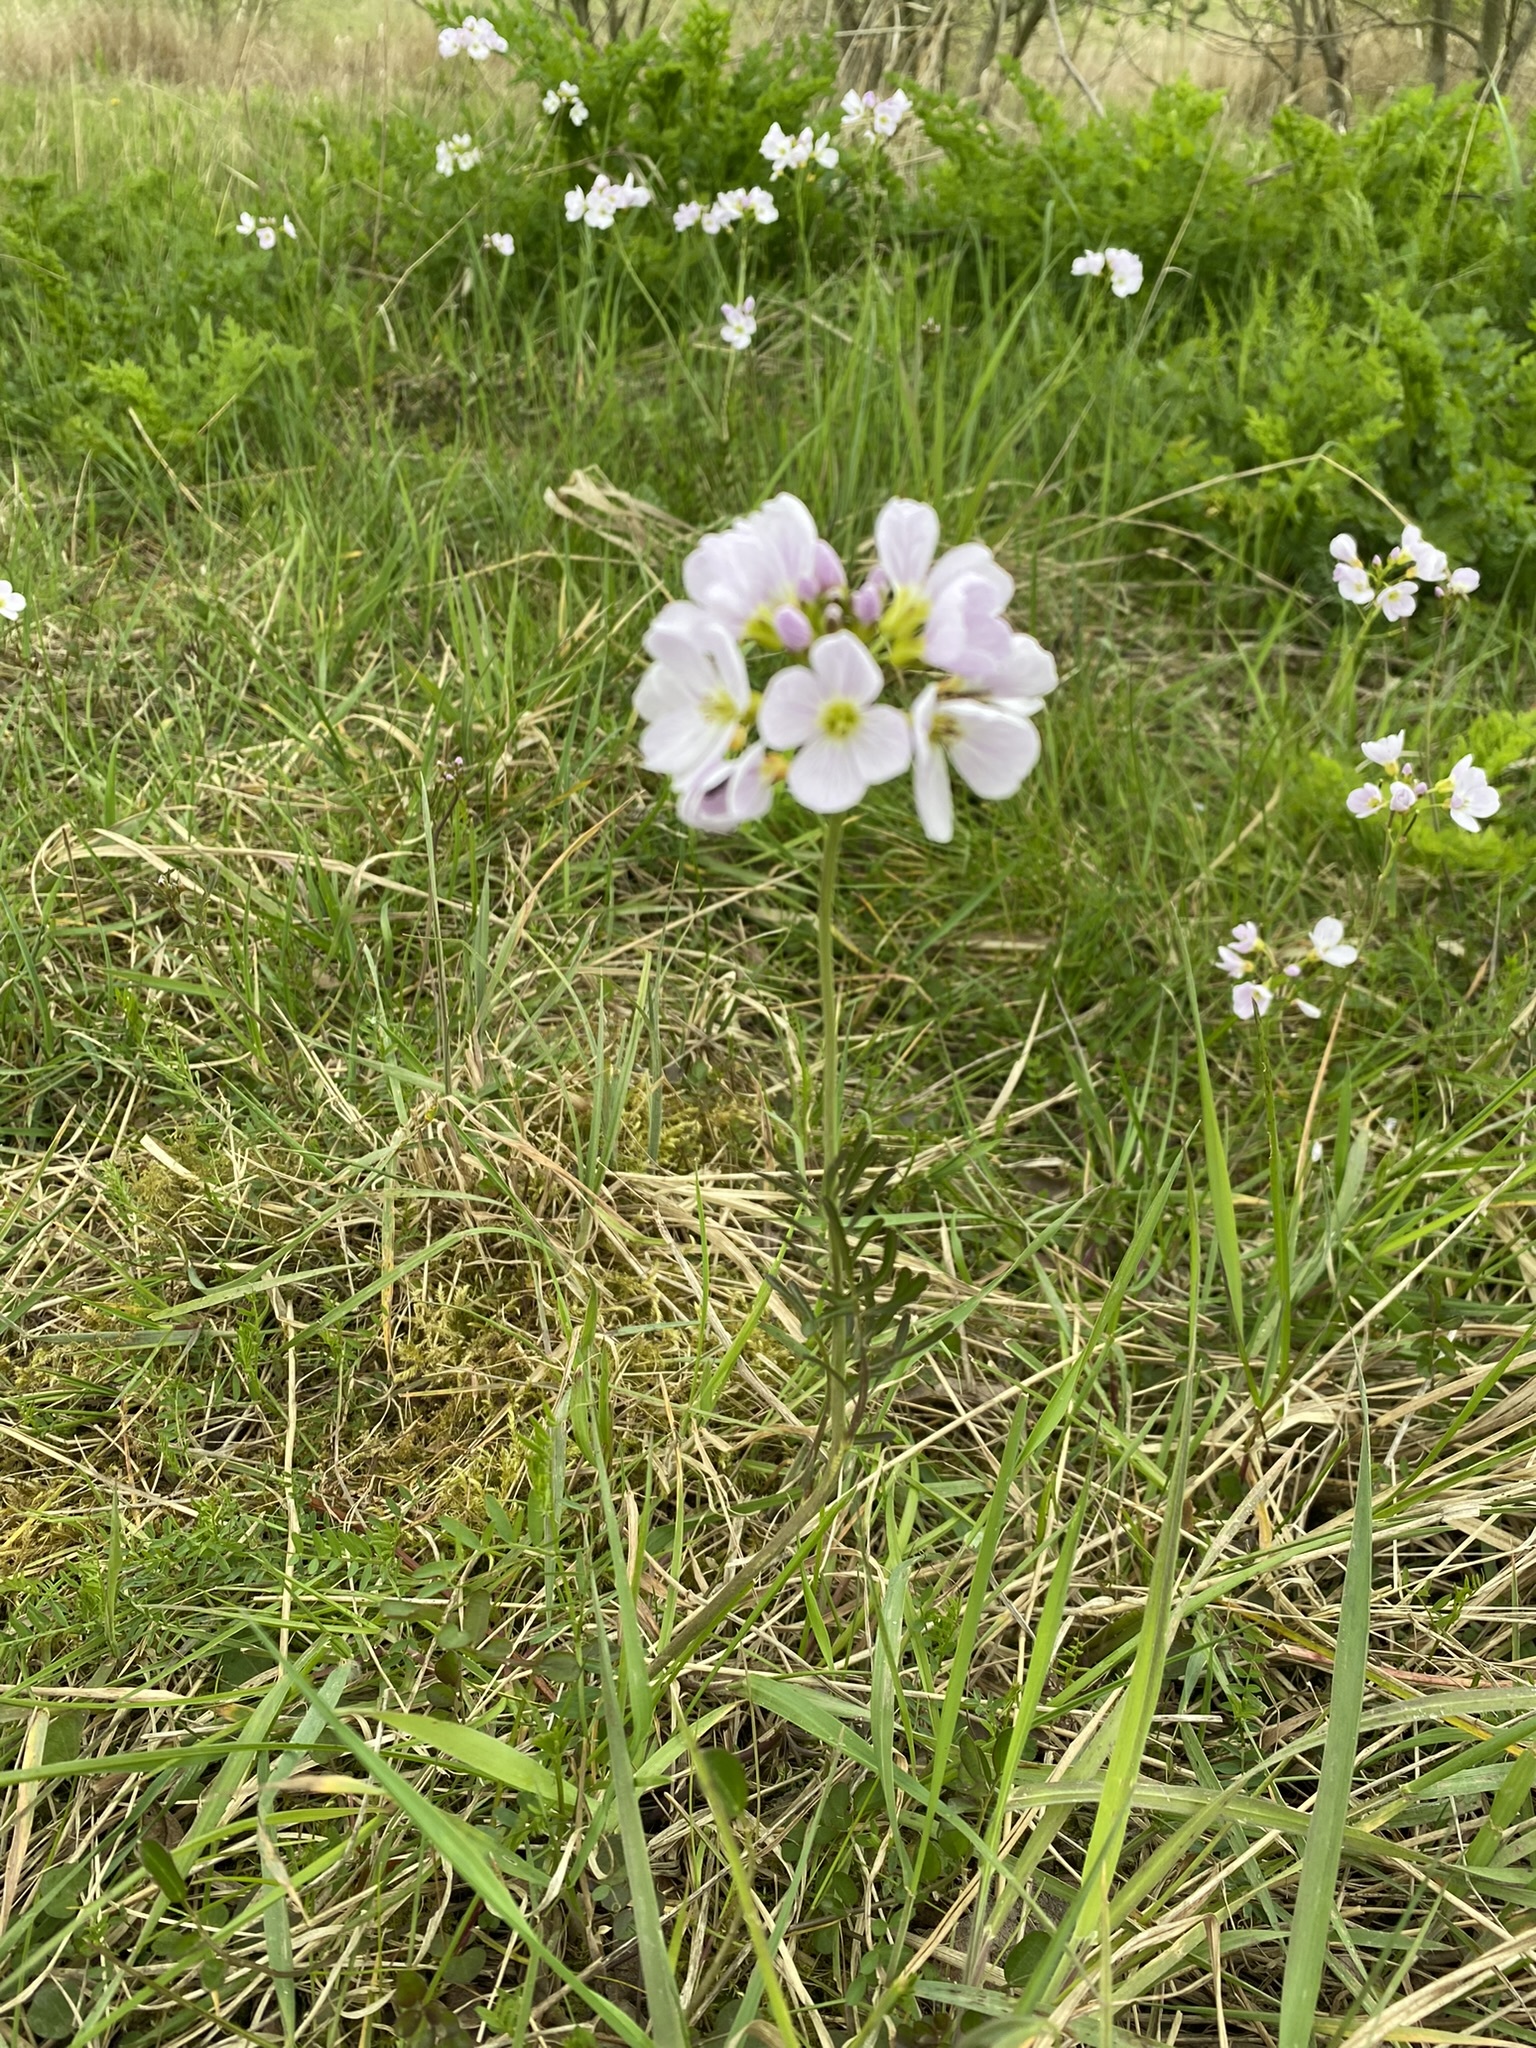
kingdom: Plantae
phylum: Tracheophyta
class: Magnoliopsida
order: Brassicales
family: Brassicaceae
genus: Cardamine
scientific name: Cardamine pratensis
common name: Cuckoo flower
